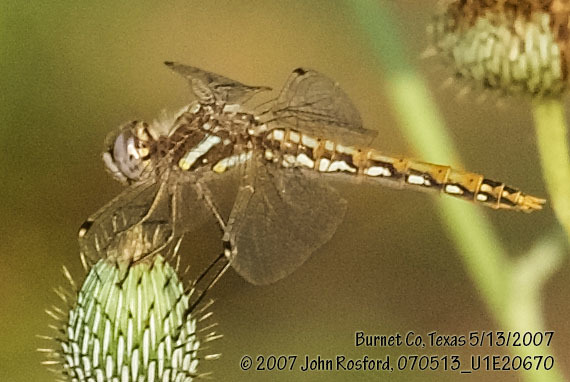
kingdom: Animalia
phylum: Arthropoda
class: Insecta
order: Odonata
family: Libellulidae
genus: Sympetrum
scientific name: Sympetrum corruptum
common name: Variegated meadowhawk
